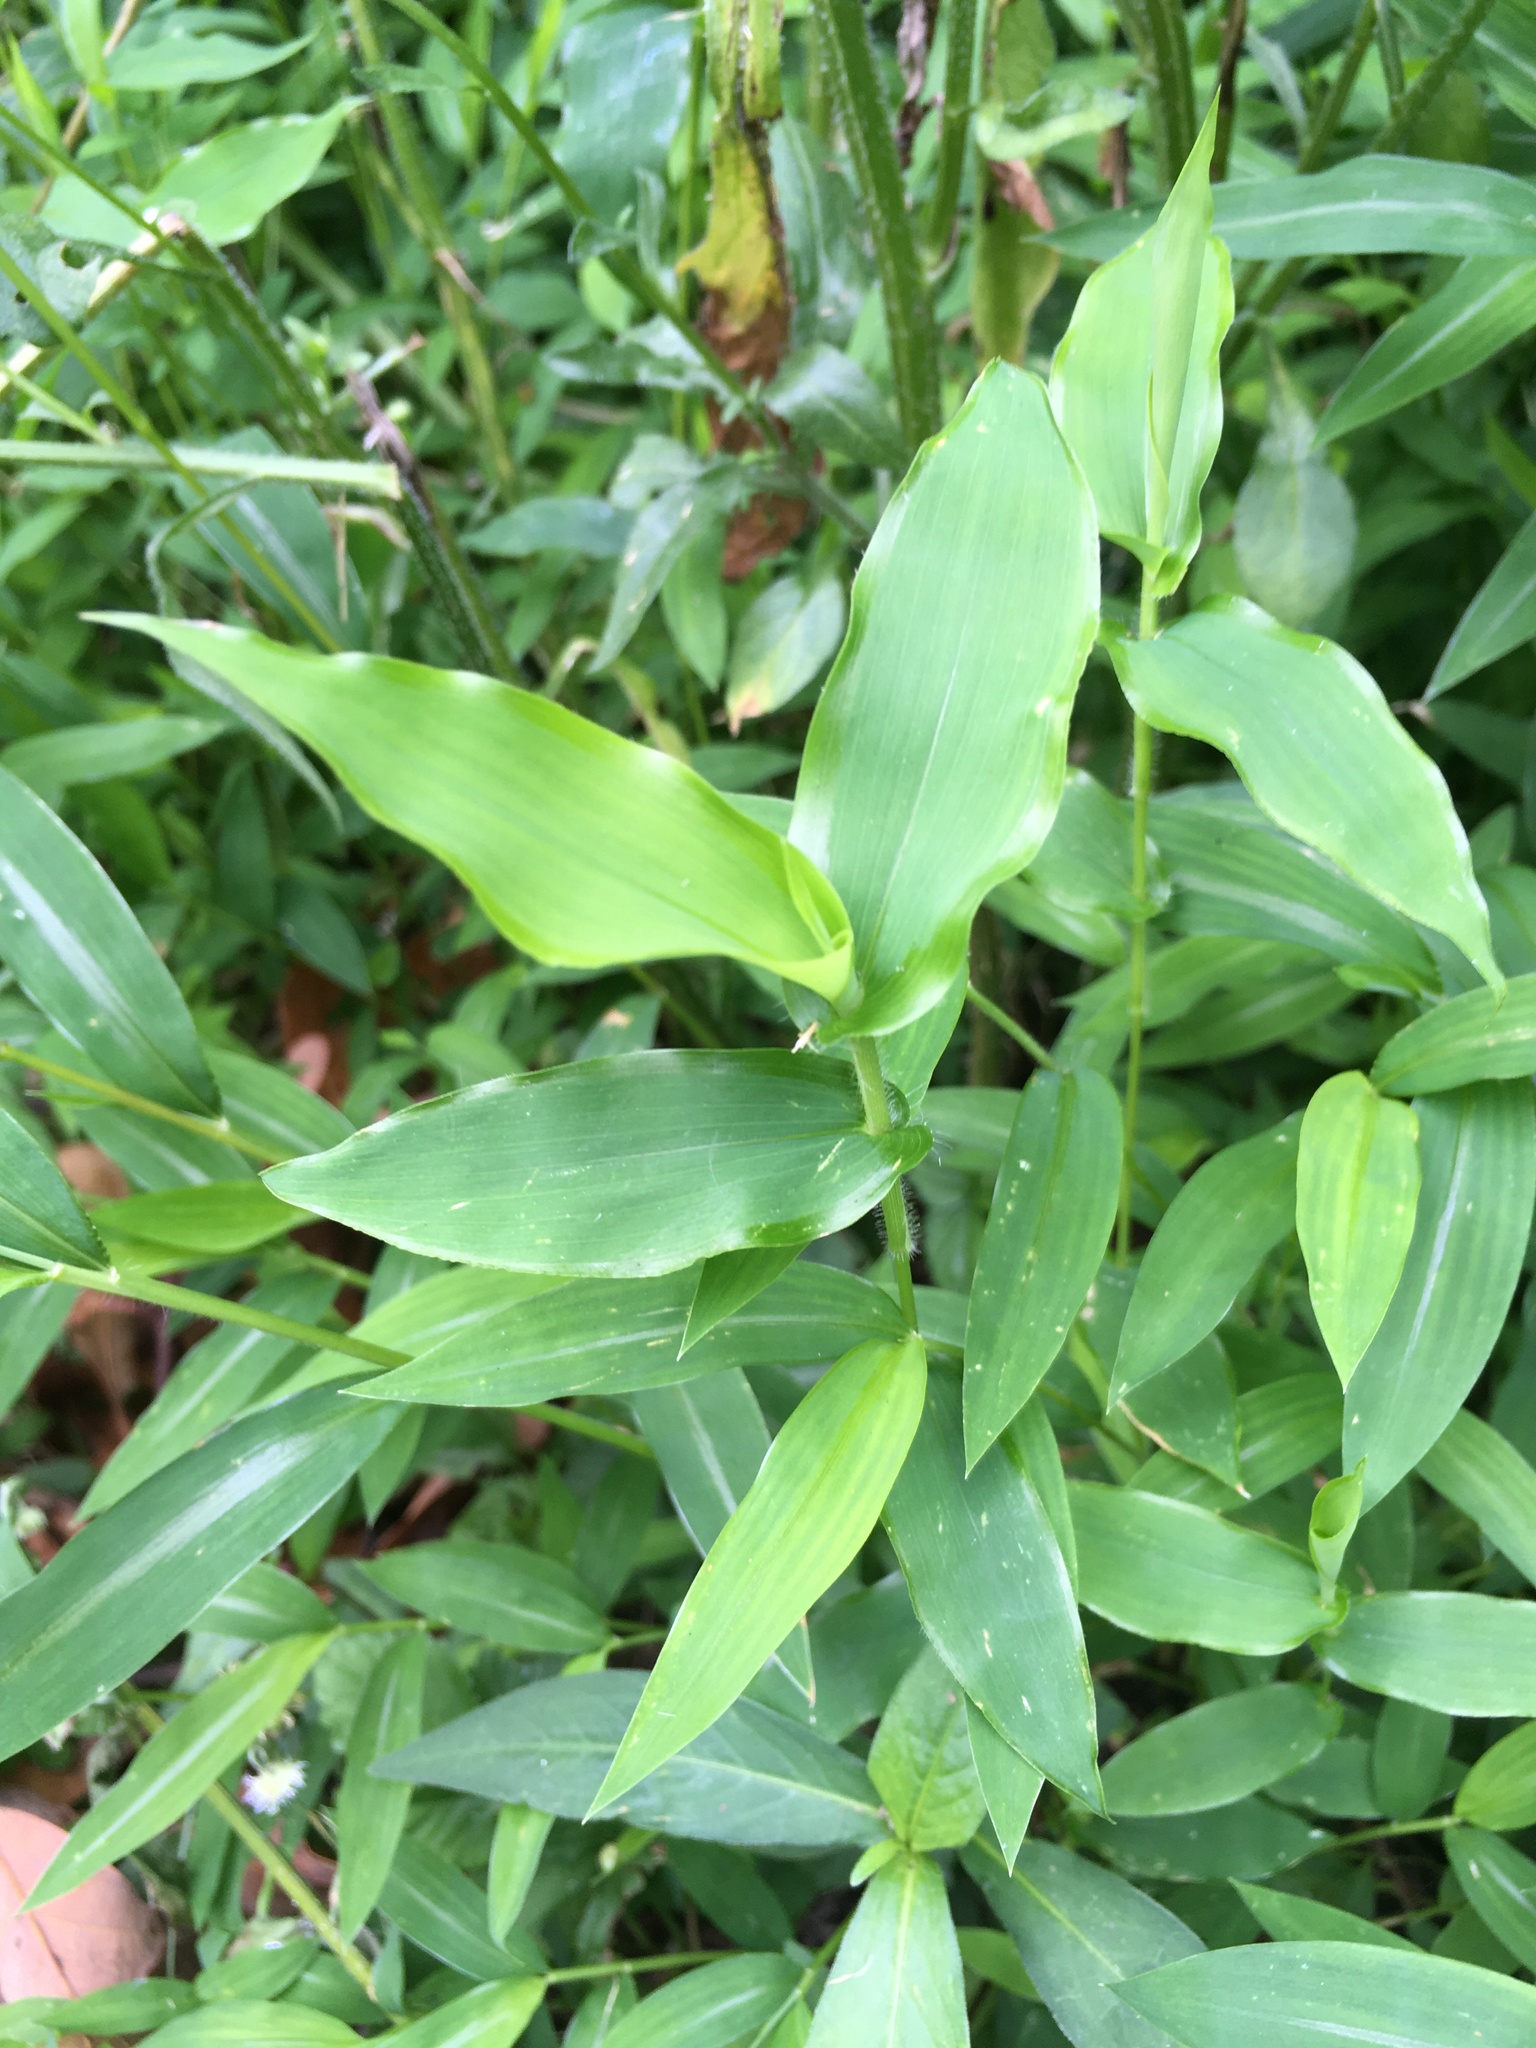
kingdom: Plantae
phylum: Tracheophyta
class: Liliopsida
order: Poales
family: Poaceae
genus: Arthraxon
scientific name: Arthraxon hispidus
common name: Small carpgrass
